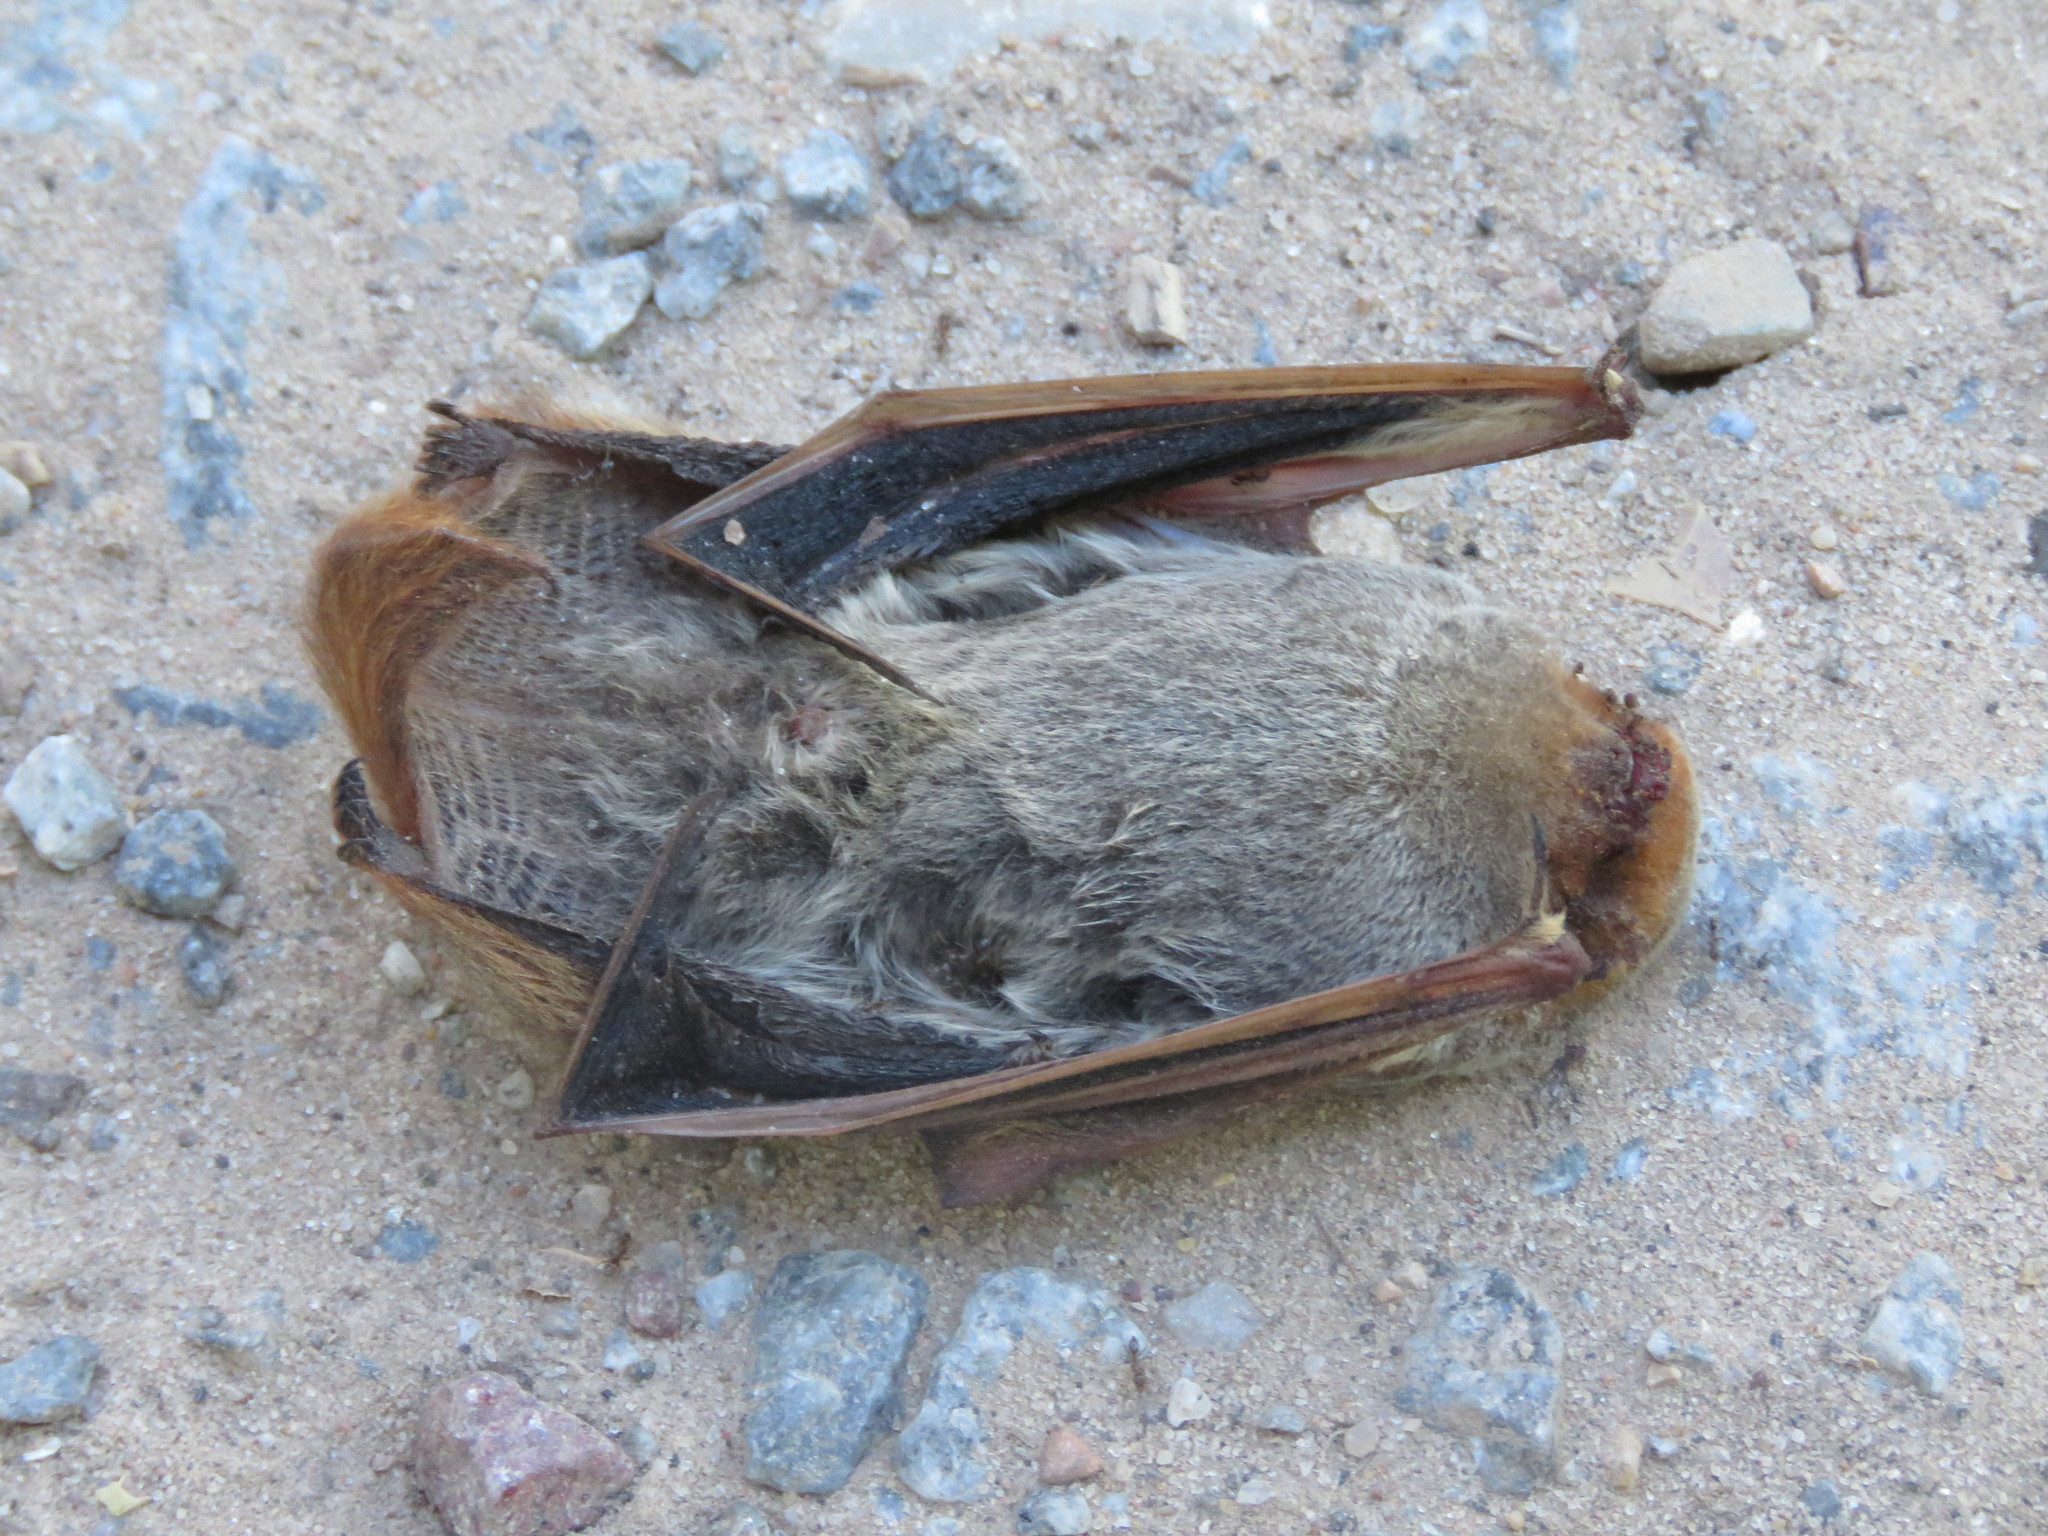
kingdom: Animalia
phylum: Chordata
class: Mammalia
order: Chiroptera
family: Vespertilionidae
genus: Lasiurus
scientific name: Lasiurus blossevillii
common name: Southern red bat
